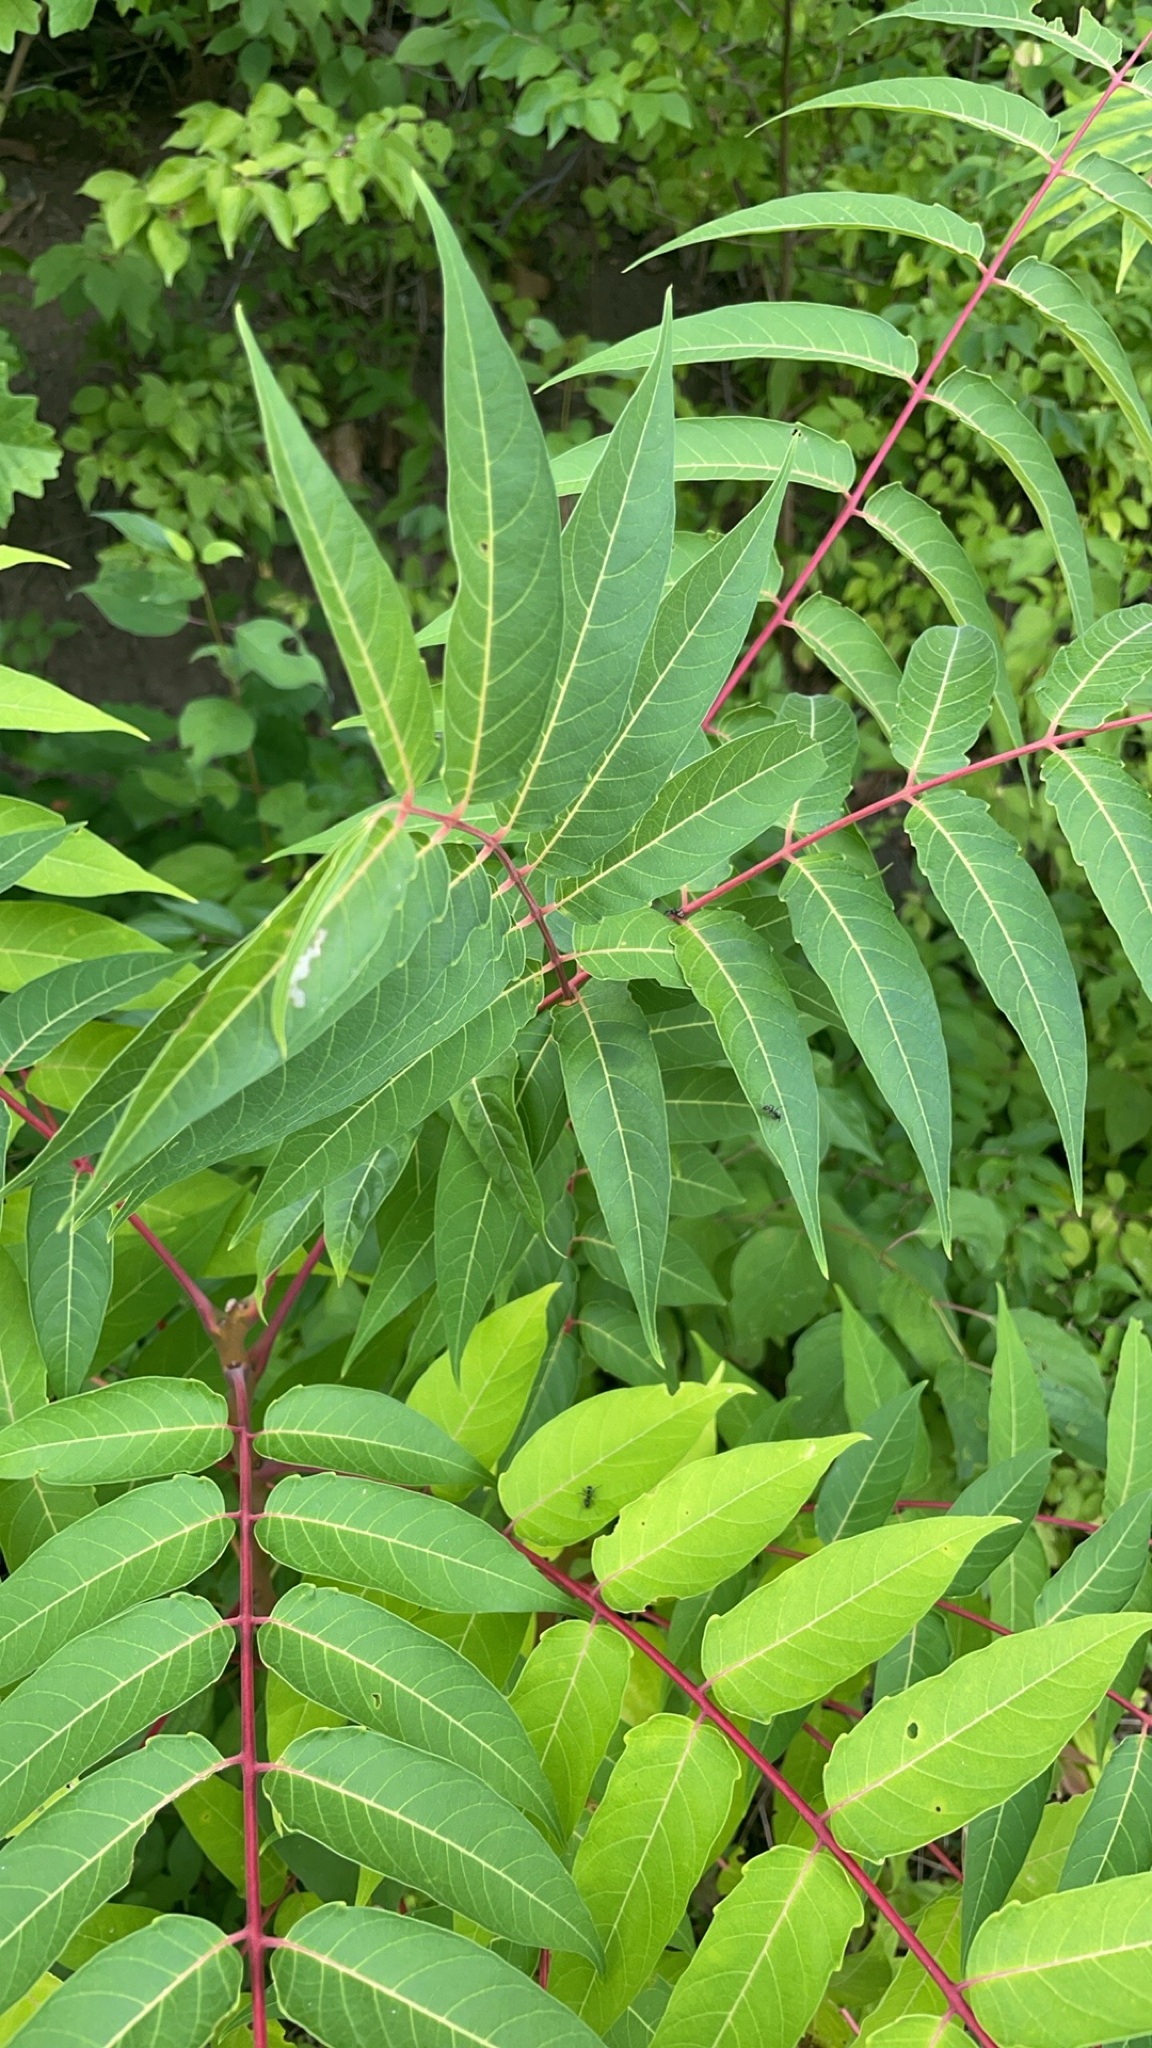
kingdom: Plantae
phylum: Tracheophyta
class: Magnoliopsida
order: Sapindales
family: Simaroubaceae
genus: Ailanthus
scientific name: Ailanthus altissima
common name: Tree-of-heaven
